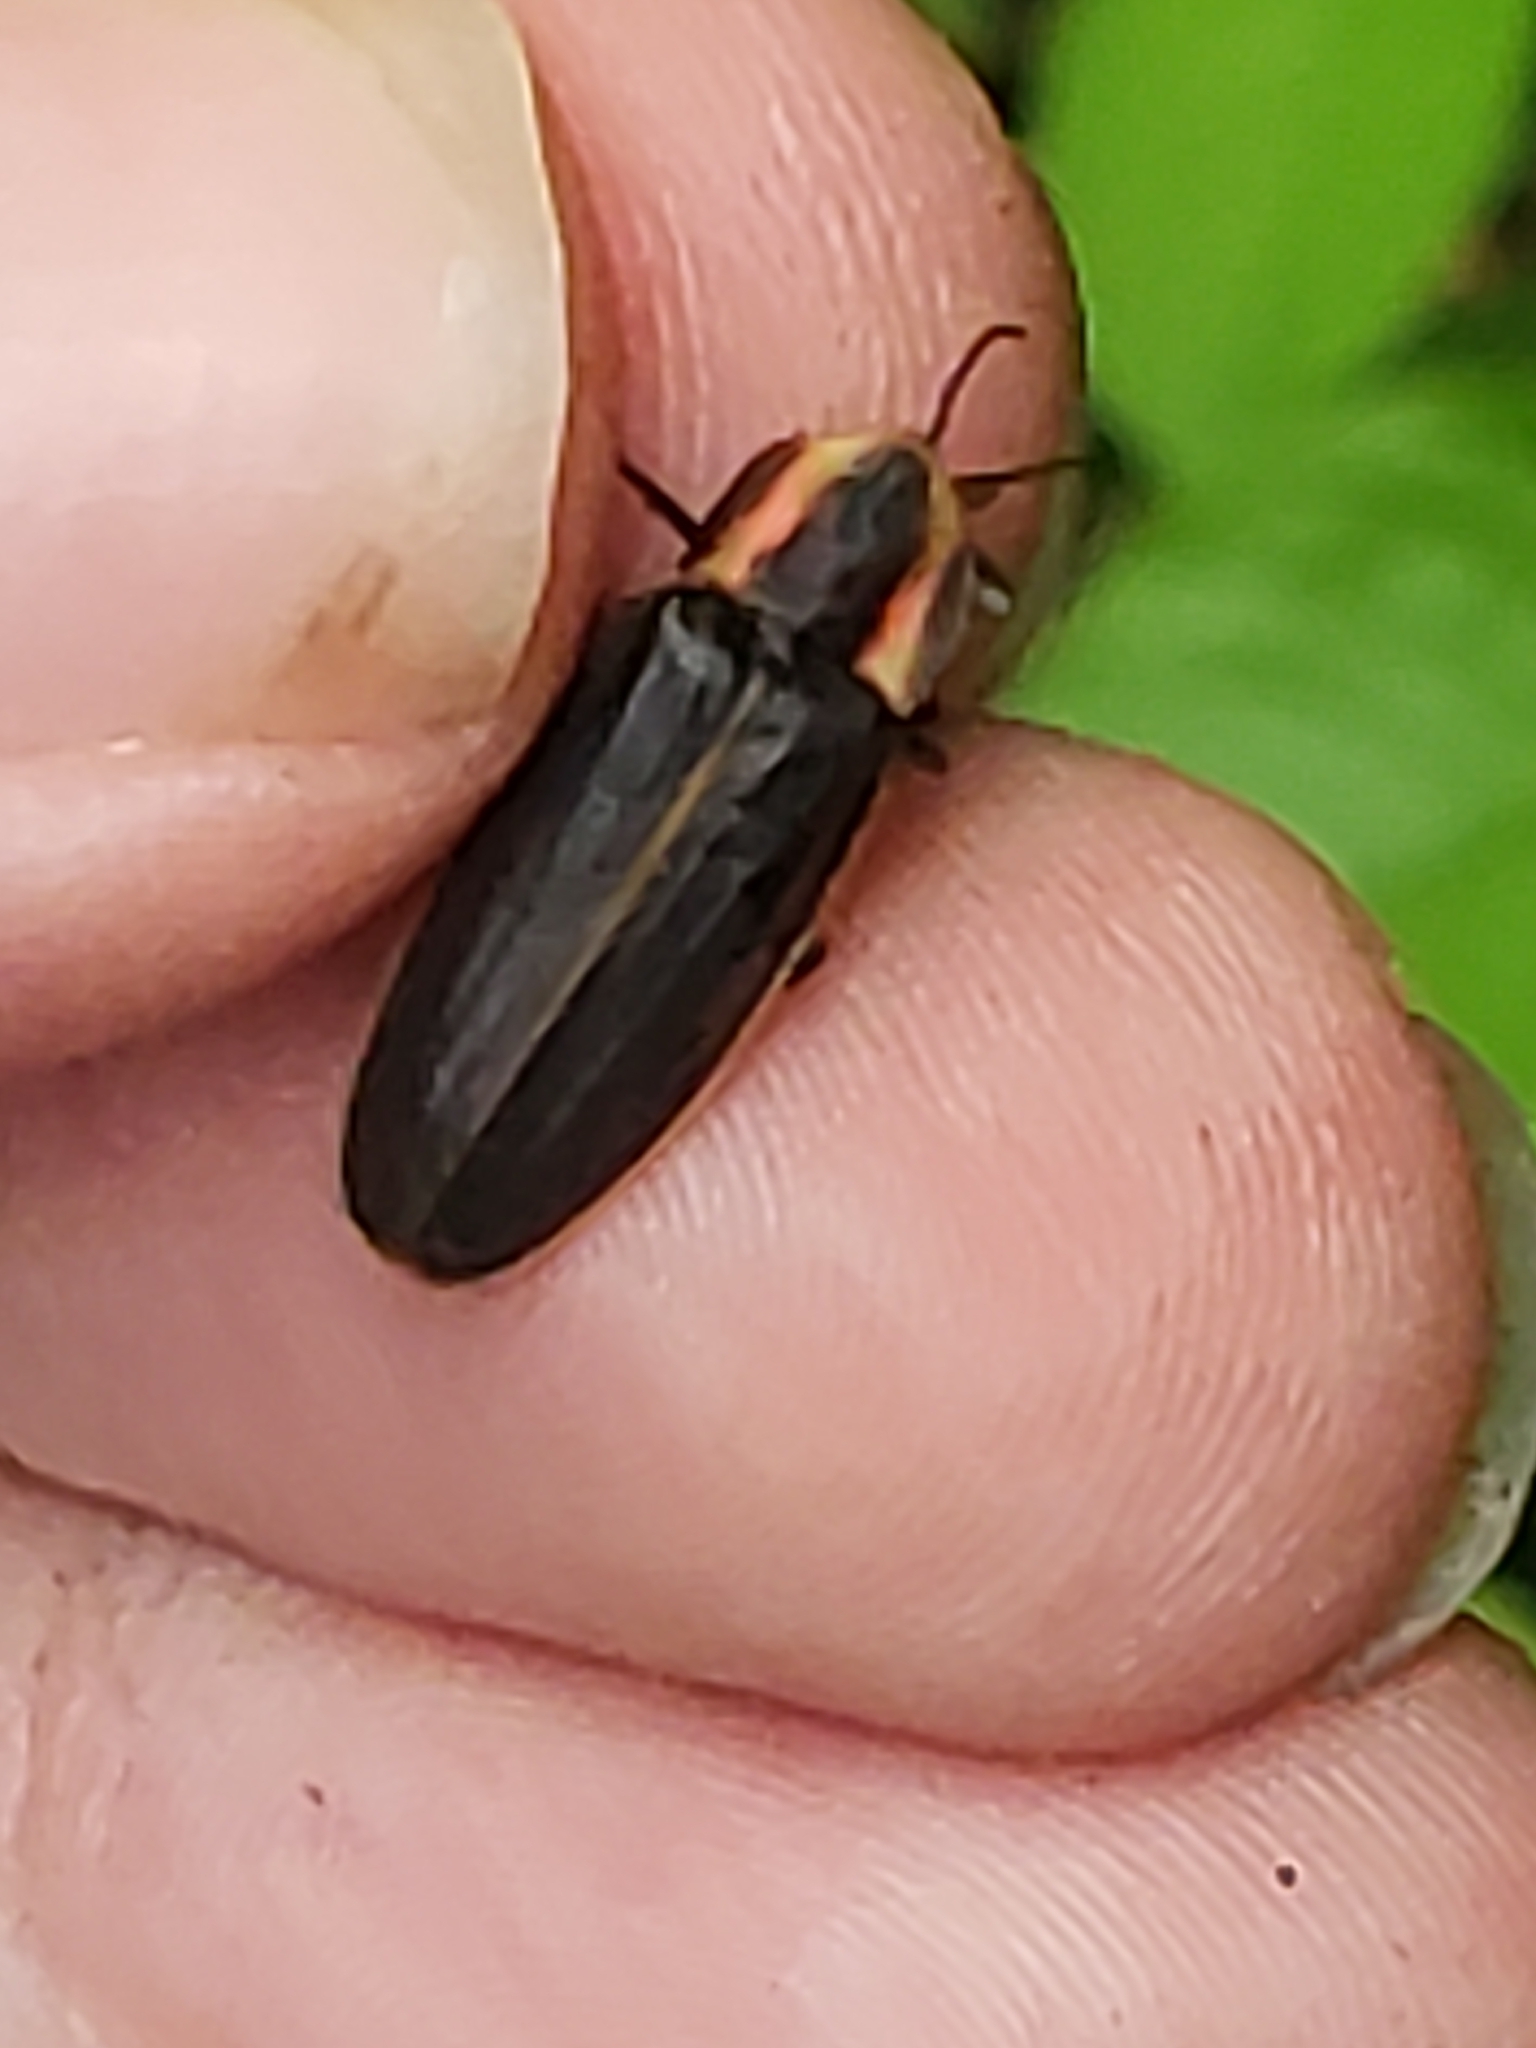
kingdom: Animalia
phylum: Arthropoda
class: Insecta
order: Coleoptera
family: Lampyridae
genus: Pyractomena
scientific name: Pyractomena borealis
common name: Northern firefly
